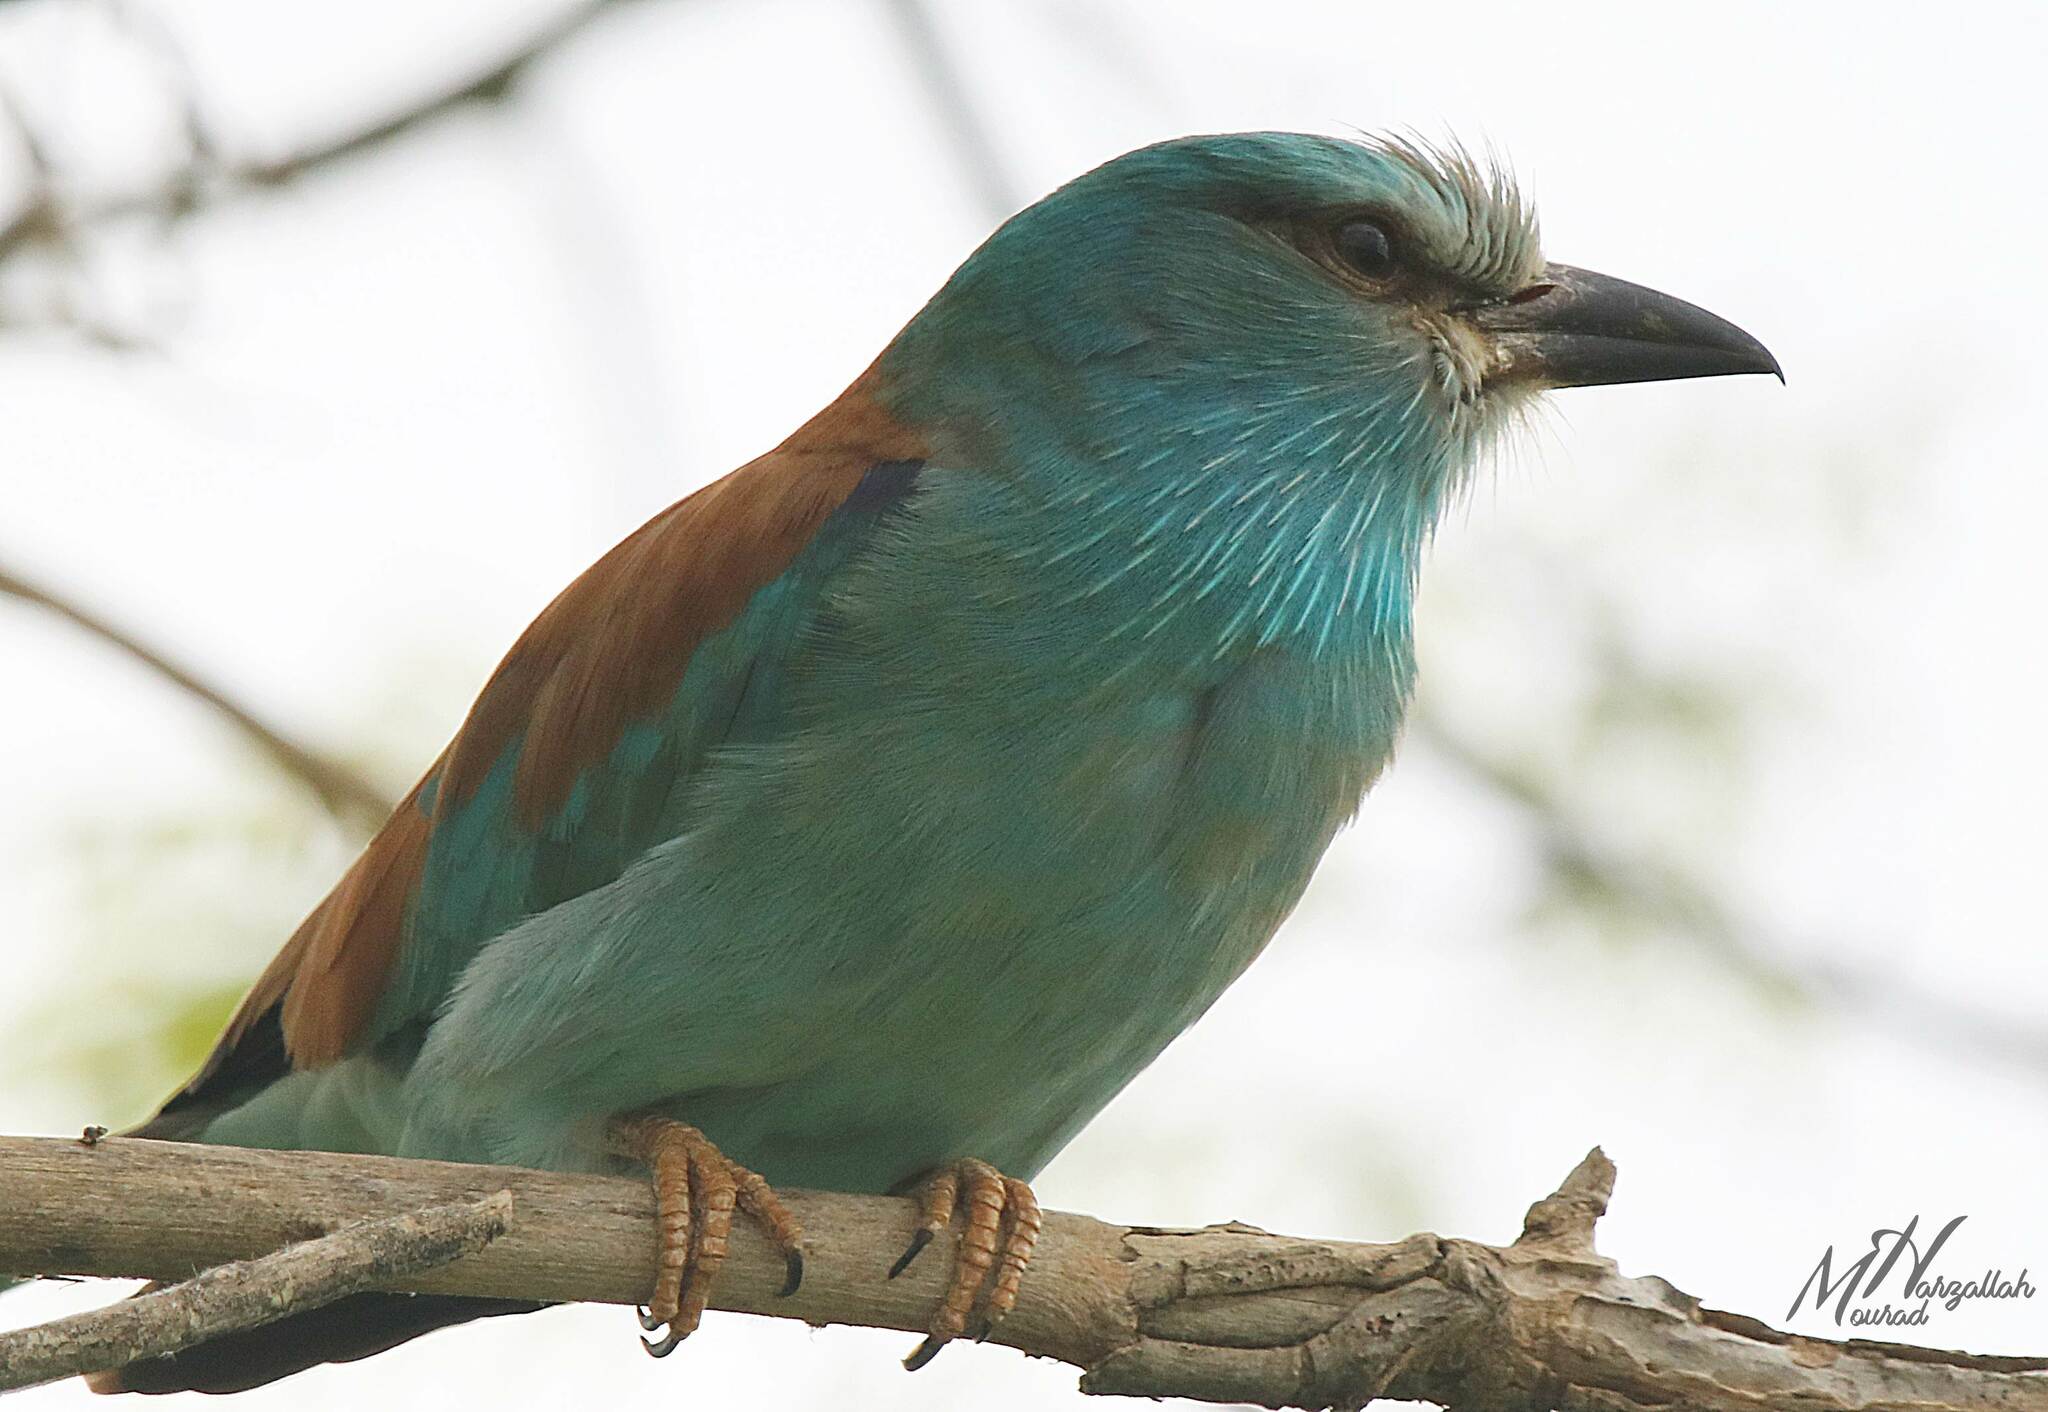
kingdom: Animalia
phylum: Chordata
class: Aves
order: Coraciiformes
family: Coraciidae
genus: Coracias
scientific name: Coracias garrulus
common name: European roller
